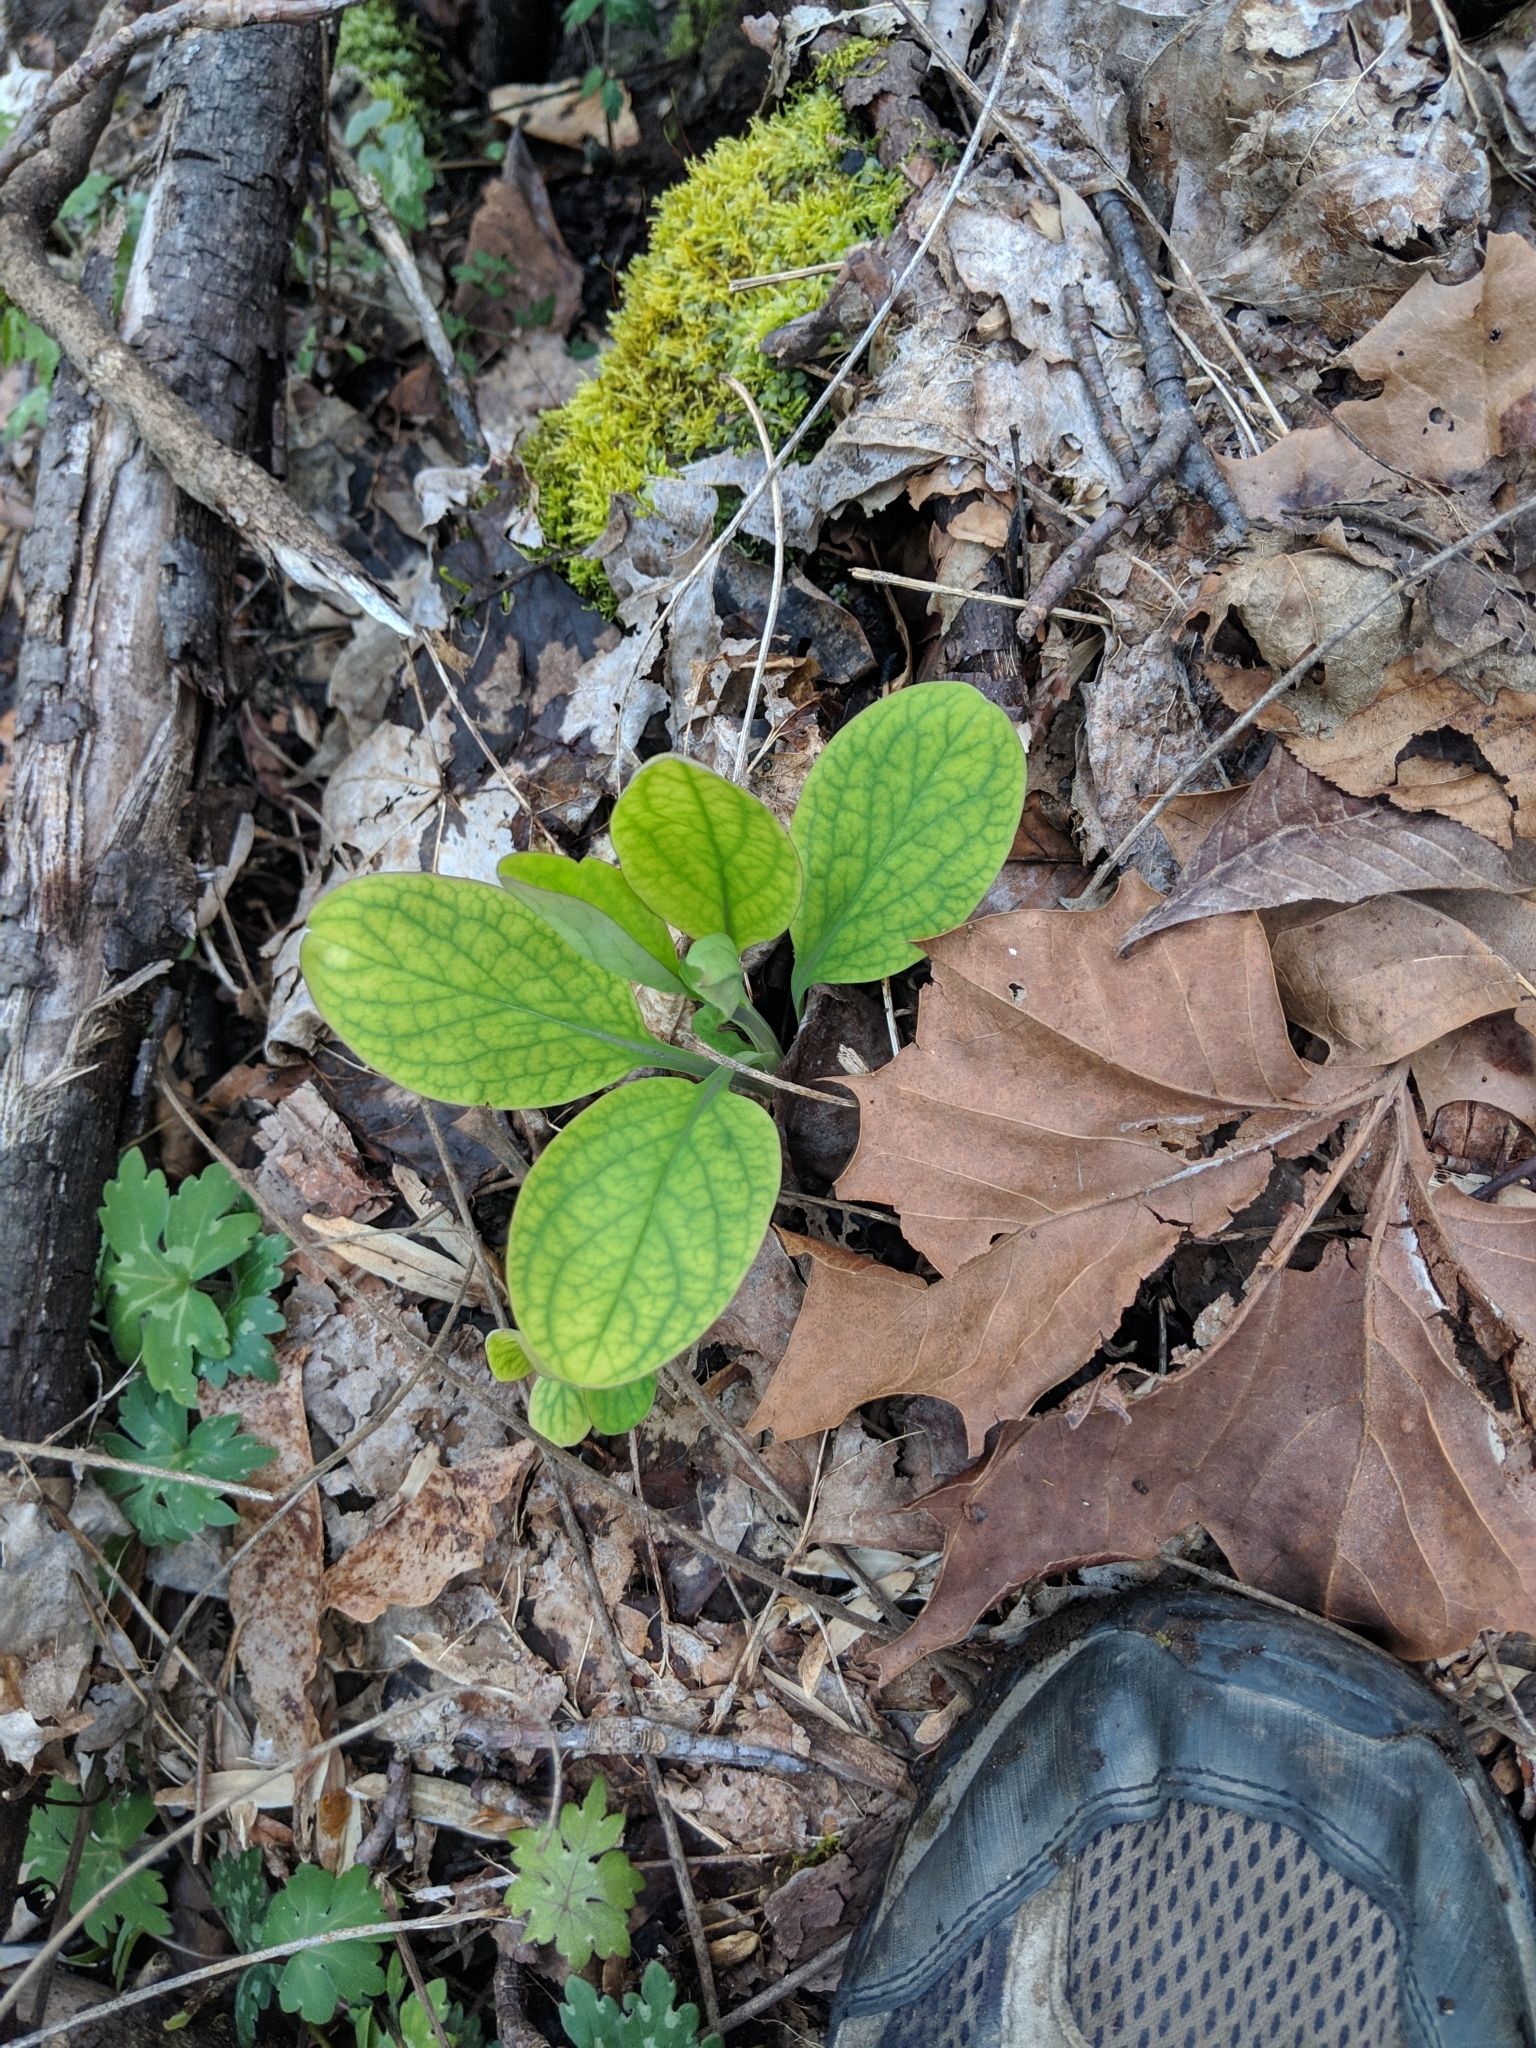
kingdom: Plantae
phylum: Tracheophyta
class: Magnoliopsida
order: Boraginales
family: Boraginaceae
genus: Mertensia
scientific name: Mertensia virginica
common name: Virginia bluebells
